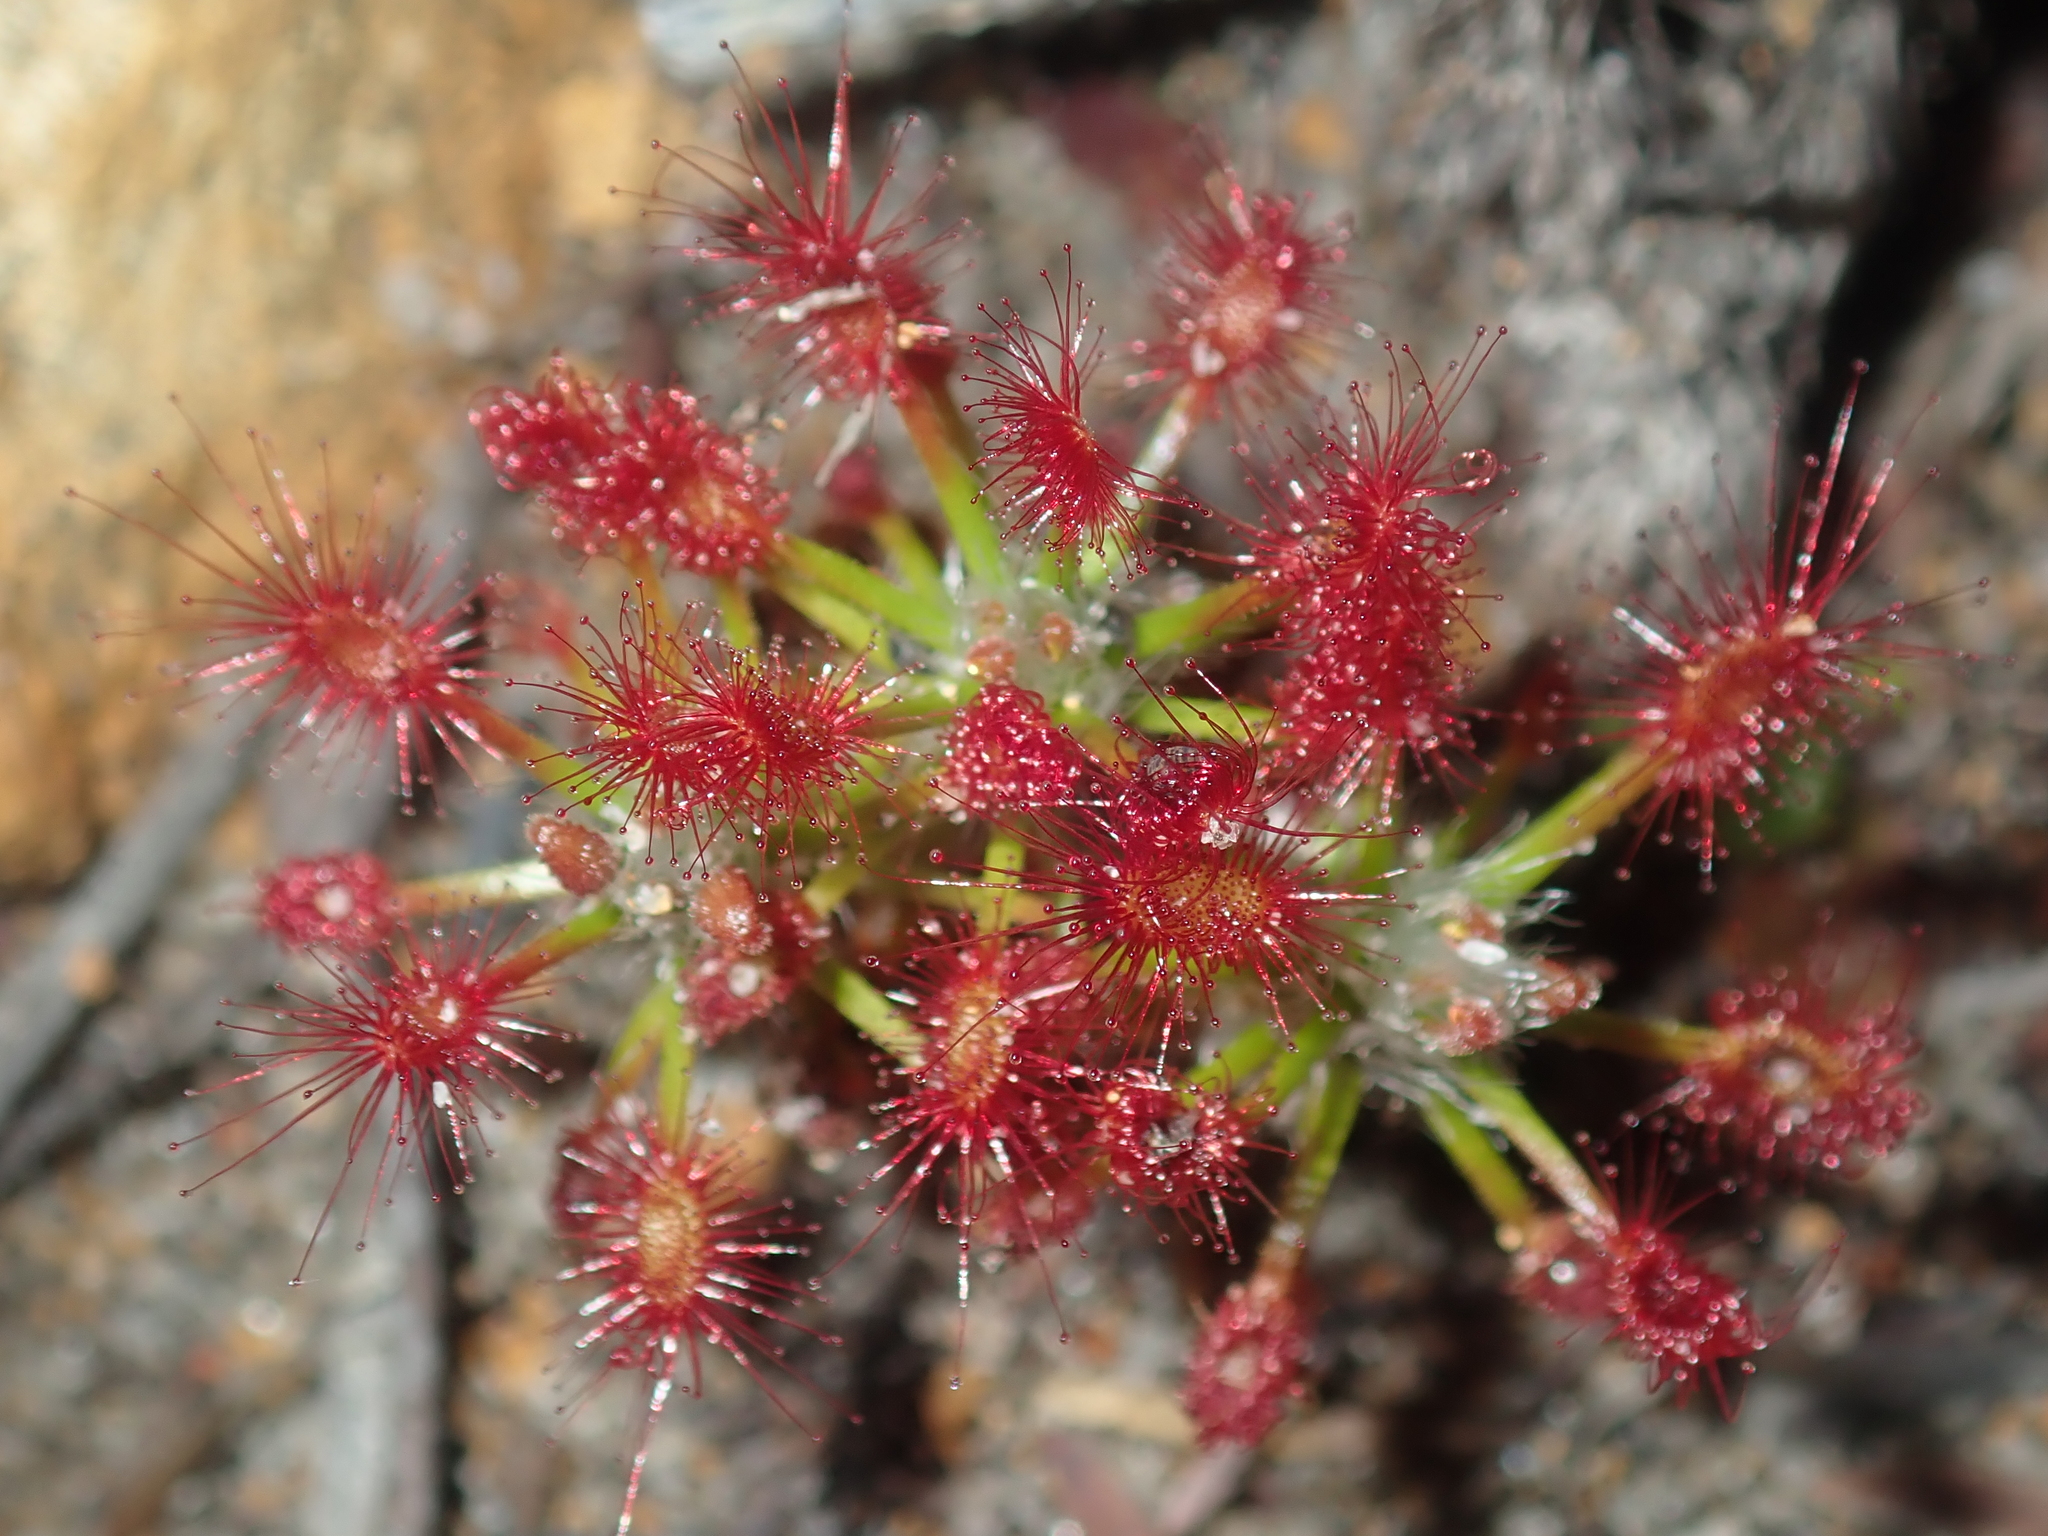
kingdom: Plantae
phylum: Tracheophyta
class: Magnoliopsida
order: Caryophyllales
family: Droseraceae
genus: Drosera
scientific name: Drosera barbigera
